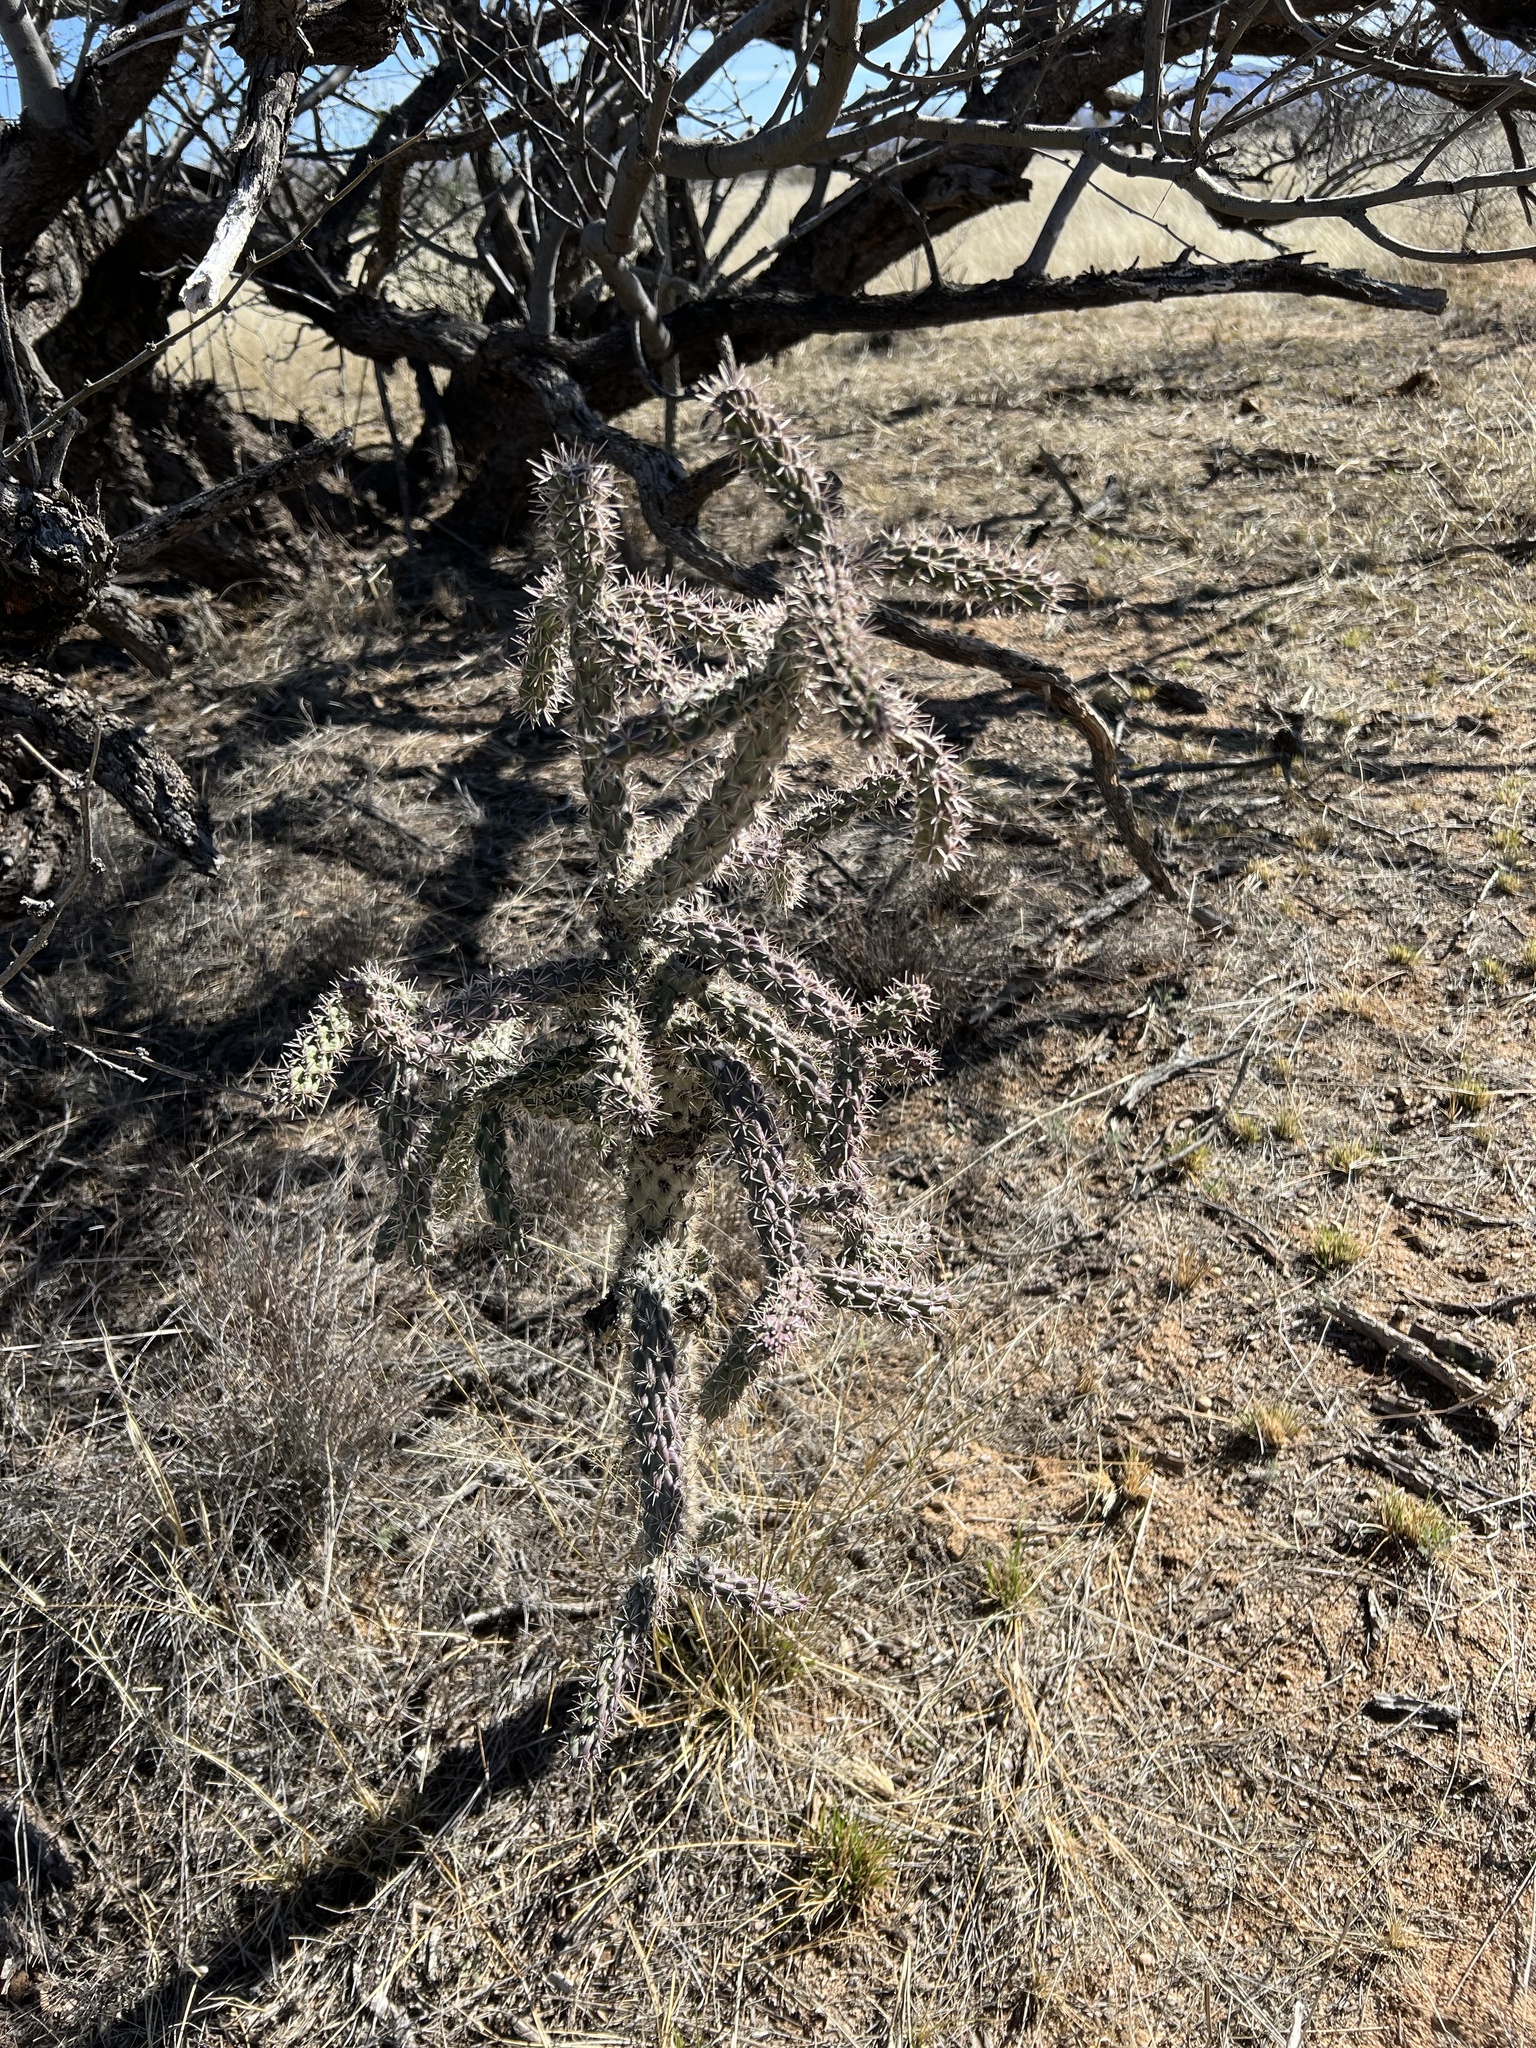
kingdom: Plantae
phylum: Tracheophyta
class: Magnoliopsida
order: Caryophyllales
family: Cactaceae
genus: Cylindropuntia
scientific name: Cylindropuntia imbricata
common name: Candelabrum cactus
